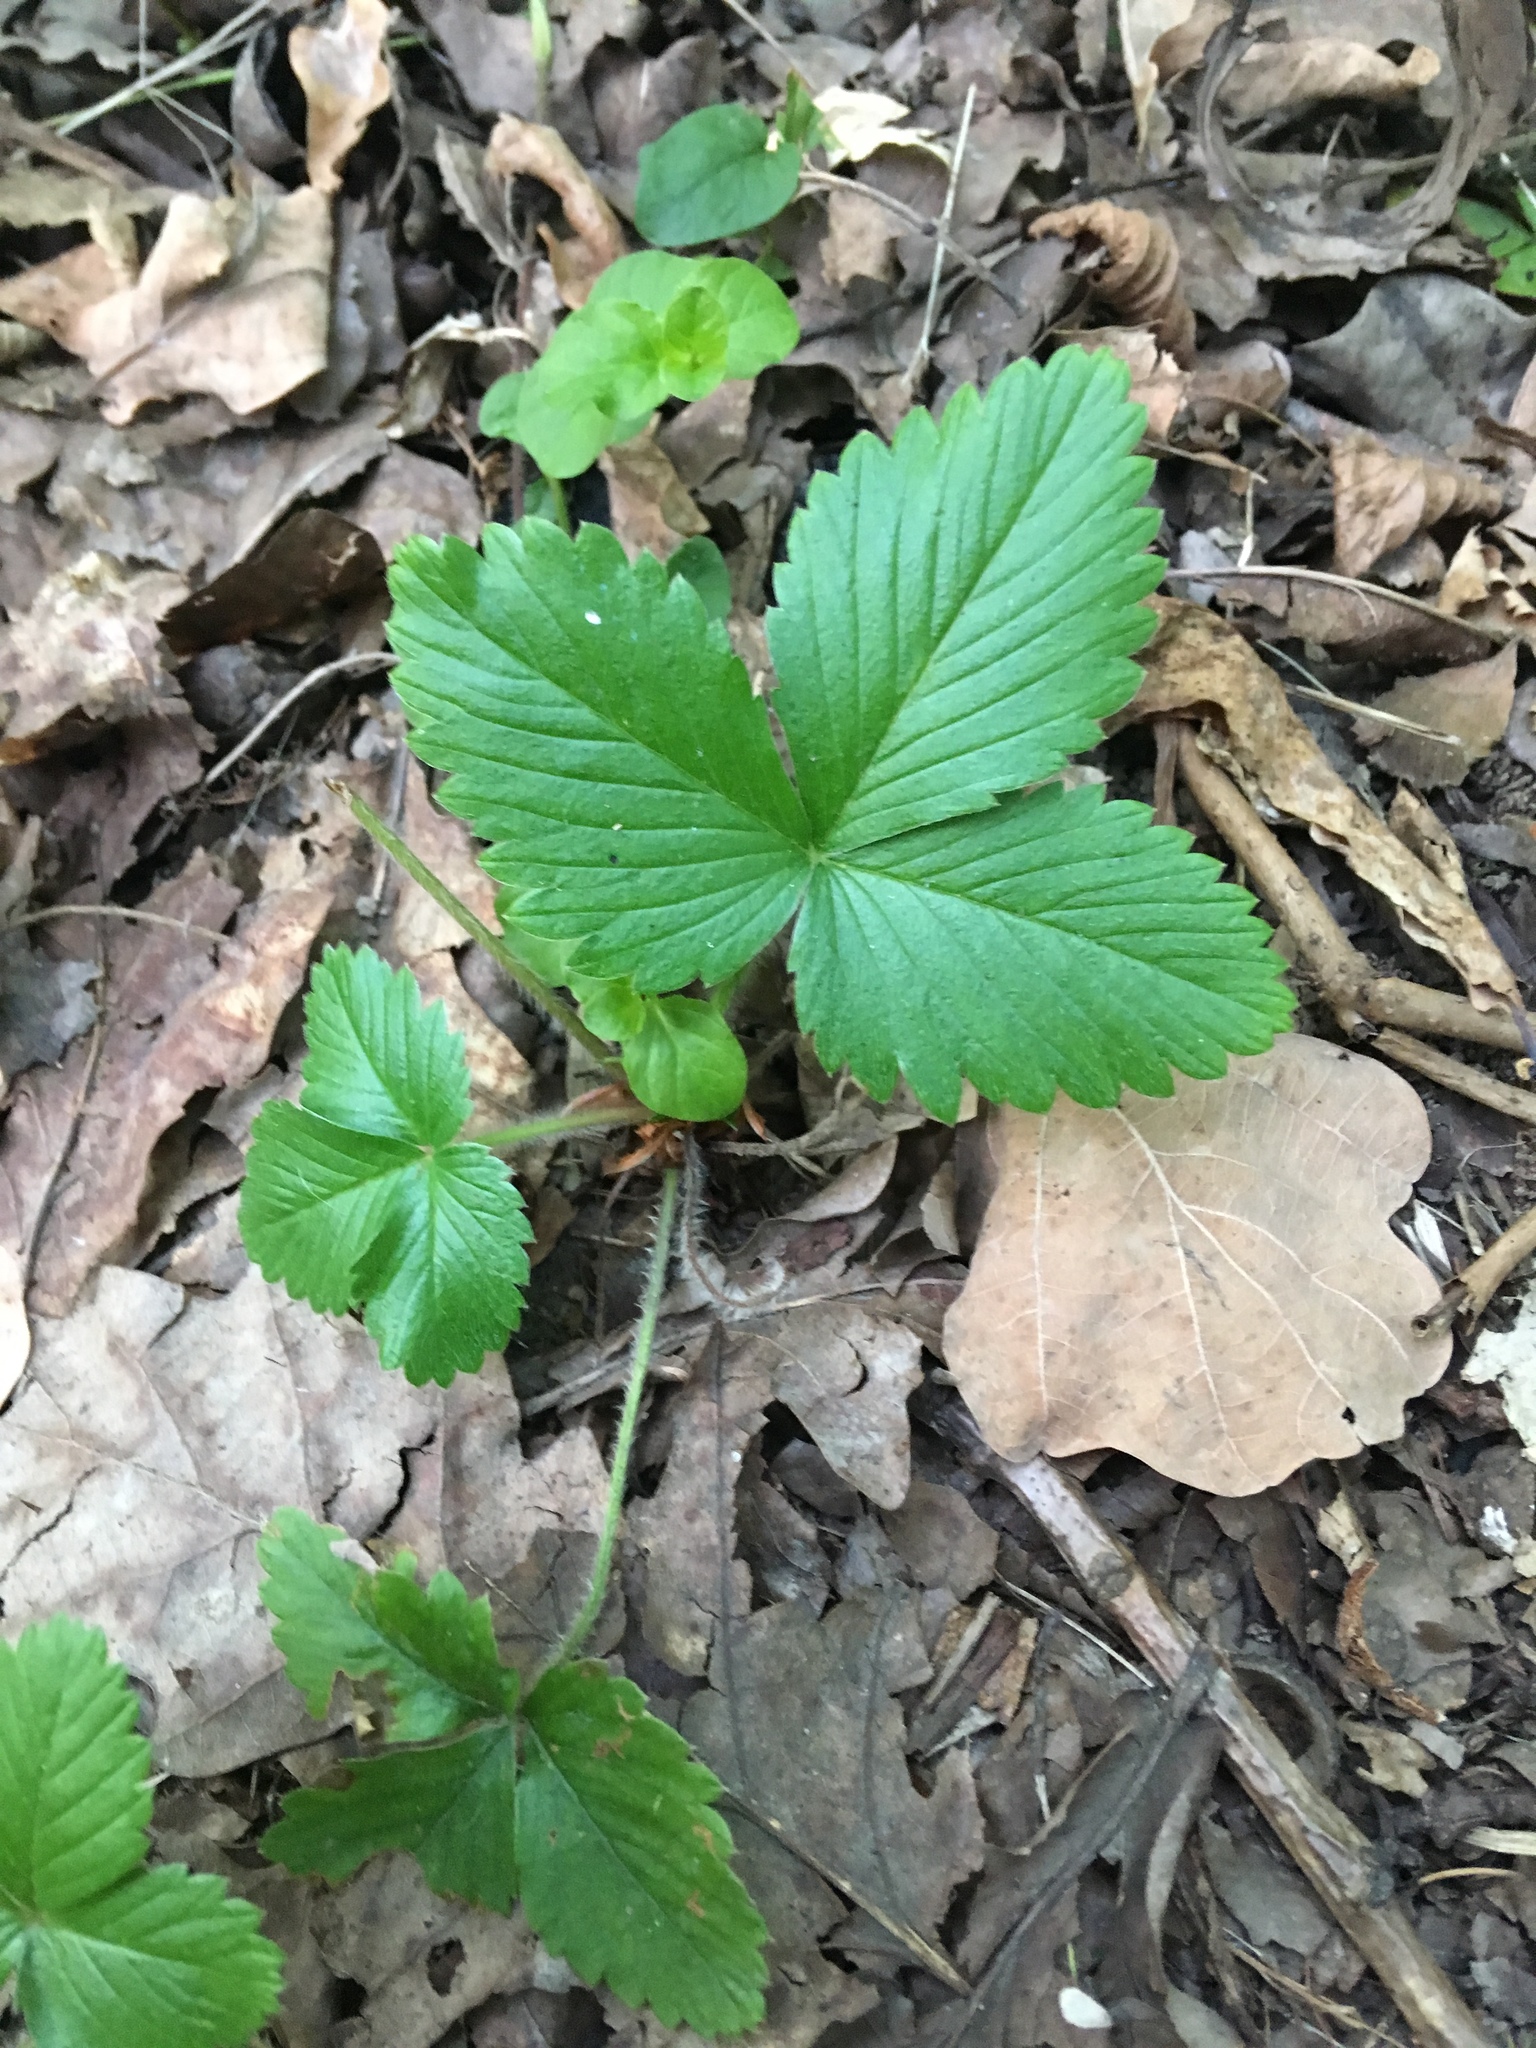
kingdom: Plantae
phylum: Tracheophyta
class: Magnoliopsida
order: Rosales
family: Rosaceae
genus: Fragaria
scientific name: Fragaria vesca
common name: Wild strawberry
